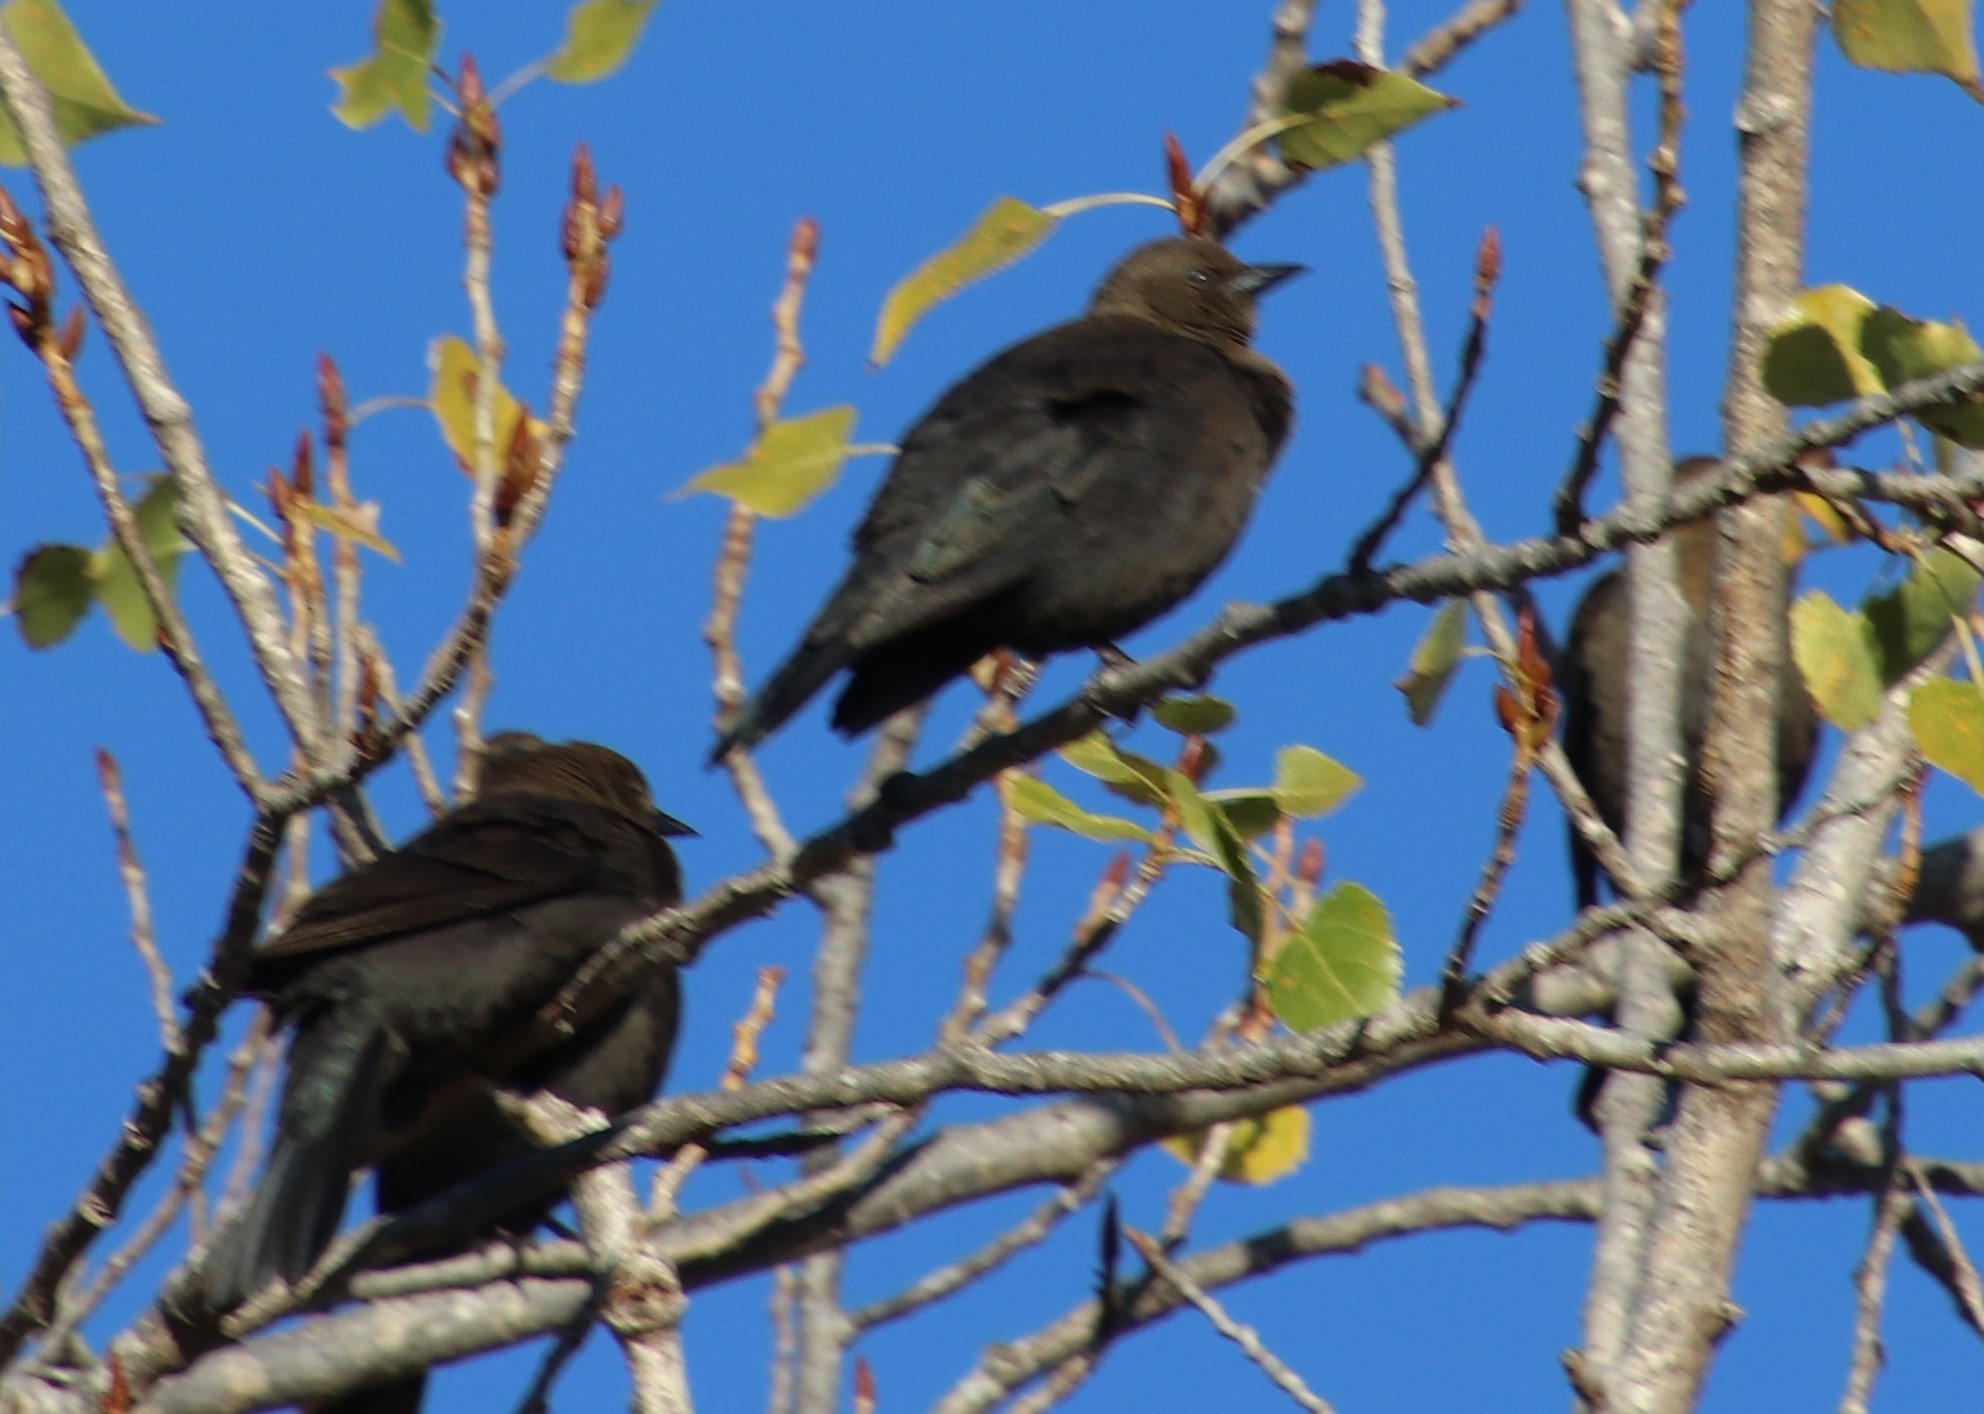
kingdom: Animalia
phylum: Chordata
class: Aves
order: Passeriformes
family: Icteridae
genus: Euphagus
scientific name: Euphagus cyanocephalus
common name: Brewer's blackbird
